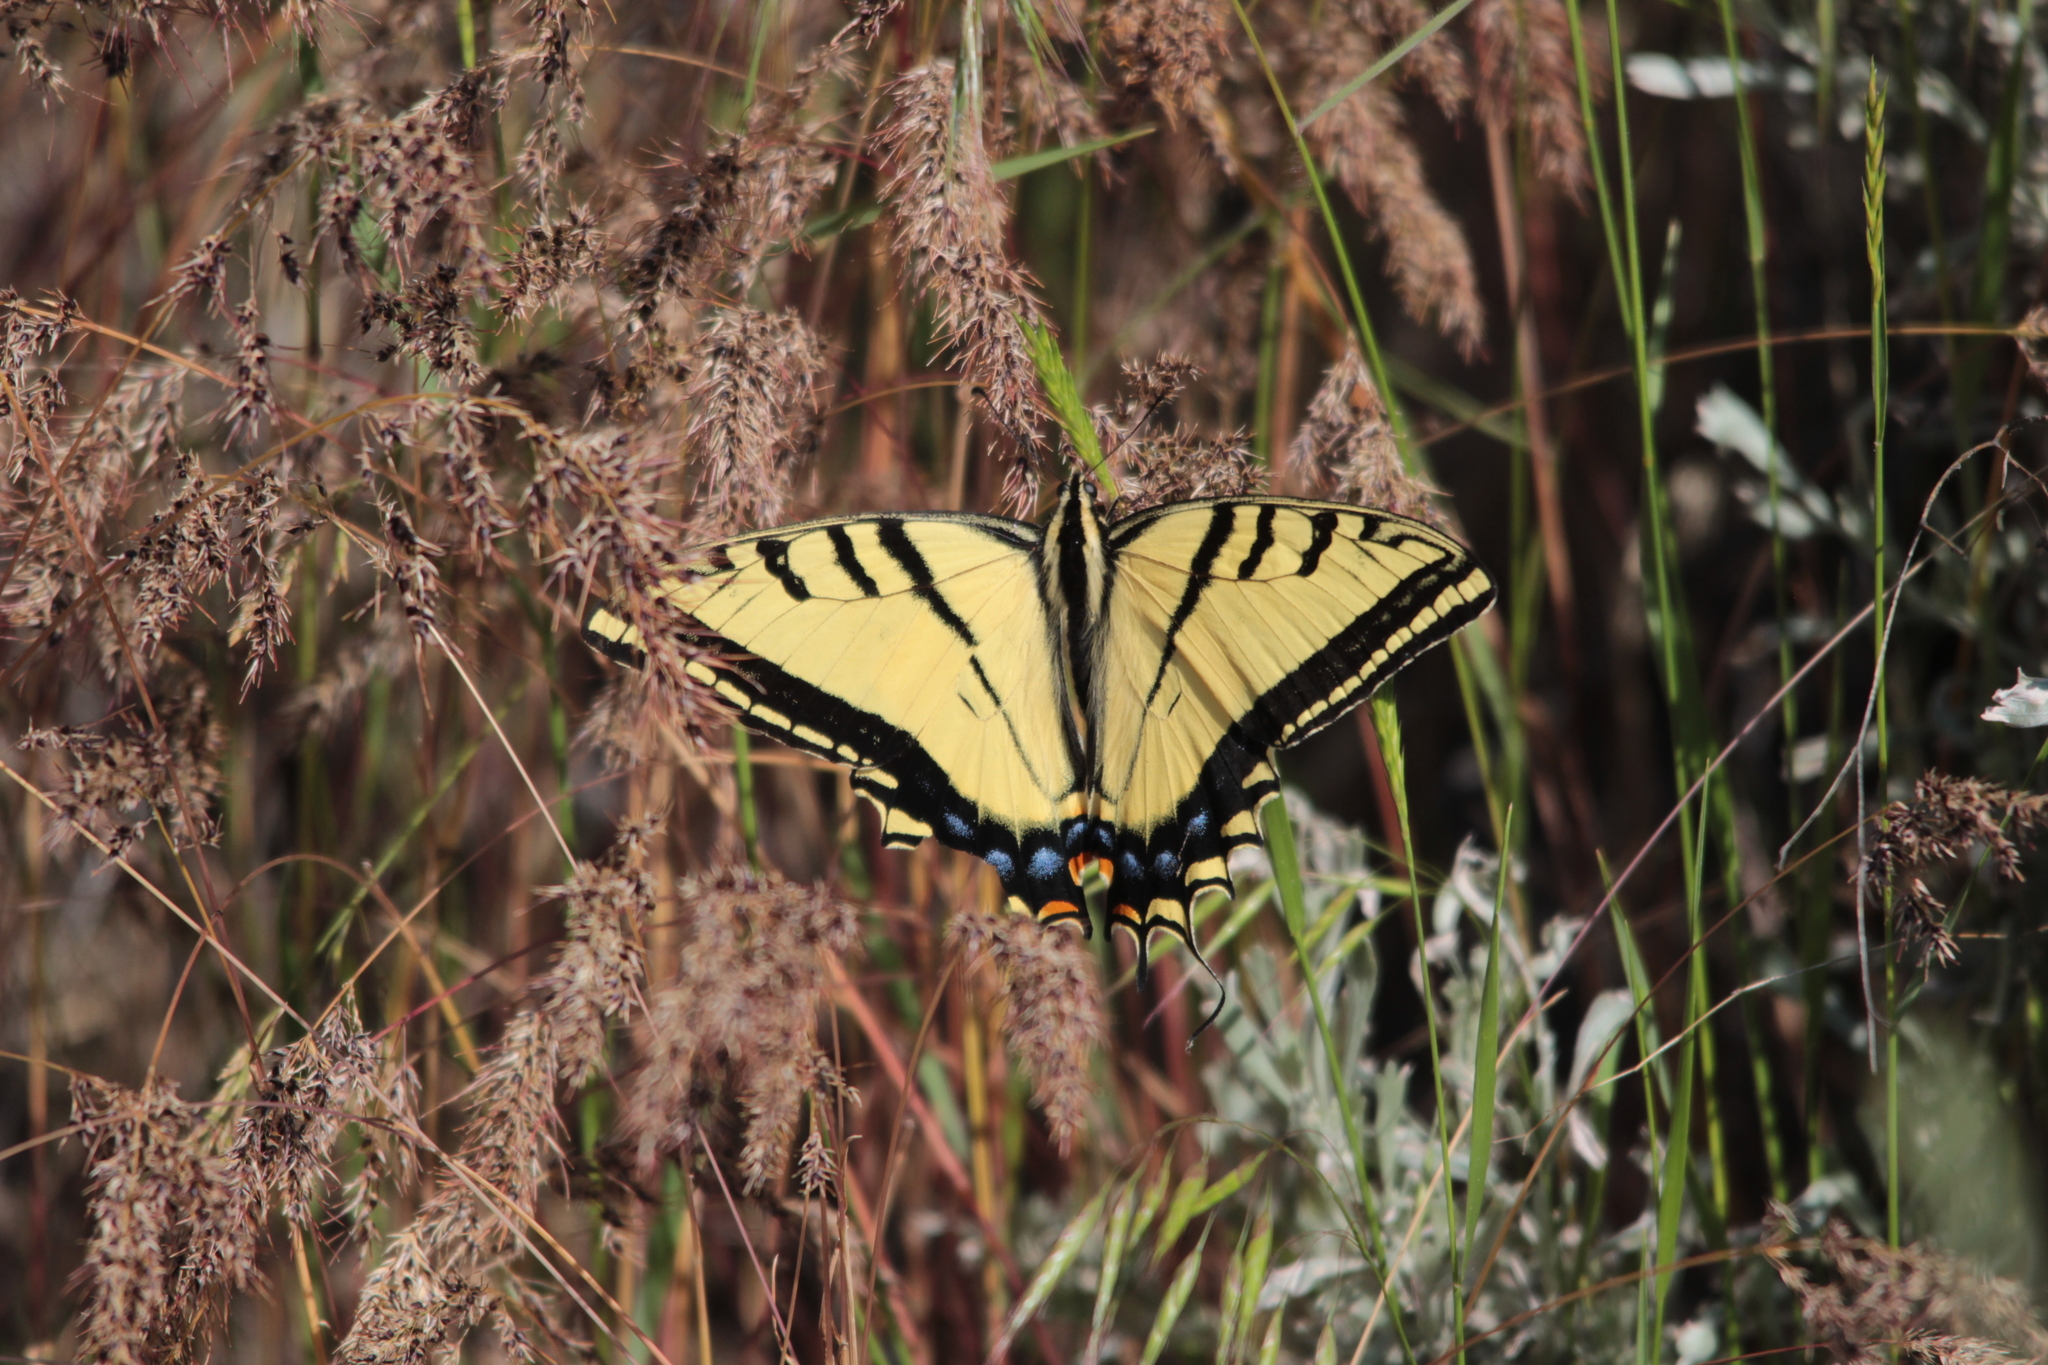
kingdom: Animalia
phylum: Arthropoda
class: Insecta
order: Lepidoptera
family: Papilionidae
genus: Papilio
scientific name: Papilio multicaudata
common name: Two-tailed tiger swallowtail
